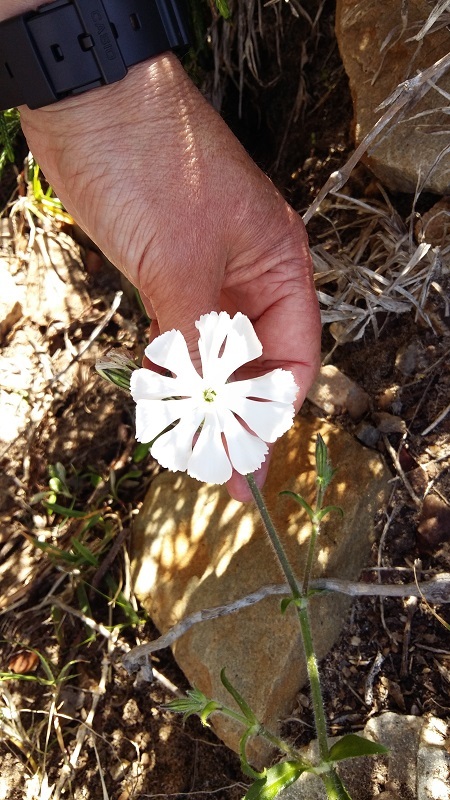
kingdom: Plantae
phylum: Tracheophyta
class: Magnoliopsida
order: Caryophyllales
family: Caryophyllaceae
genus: Silene
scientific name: Silene undulata
